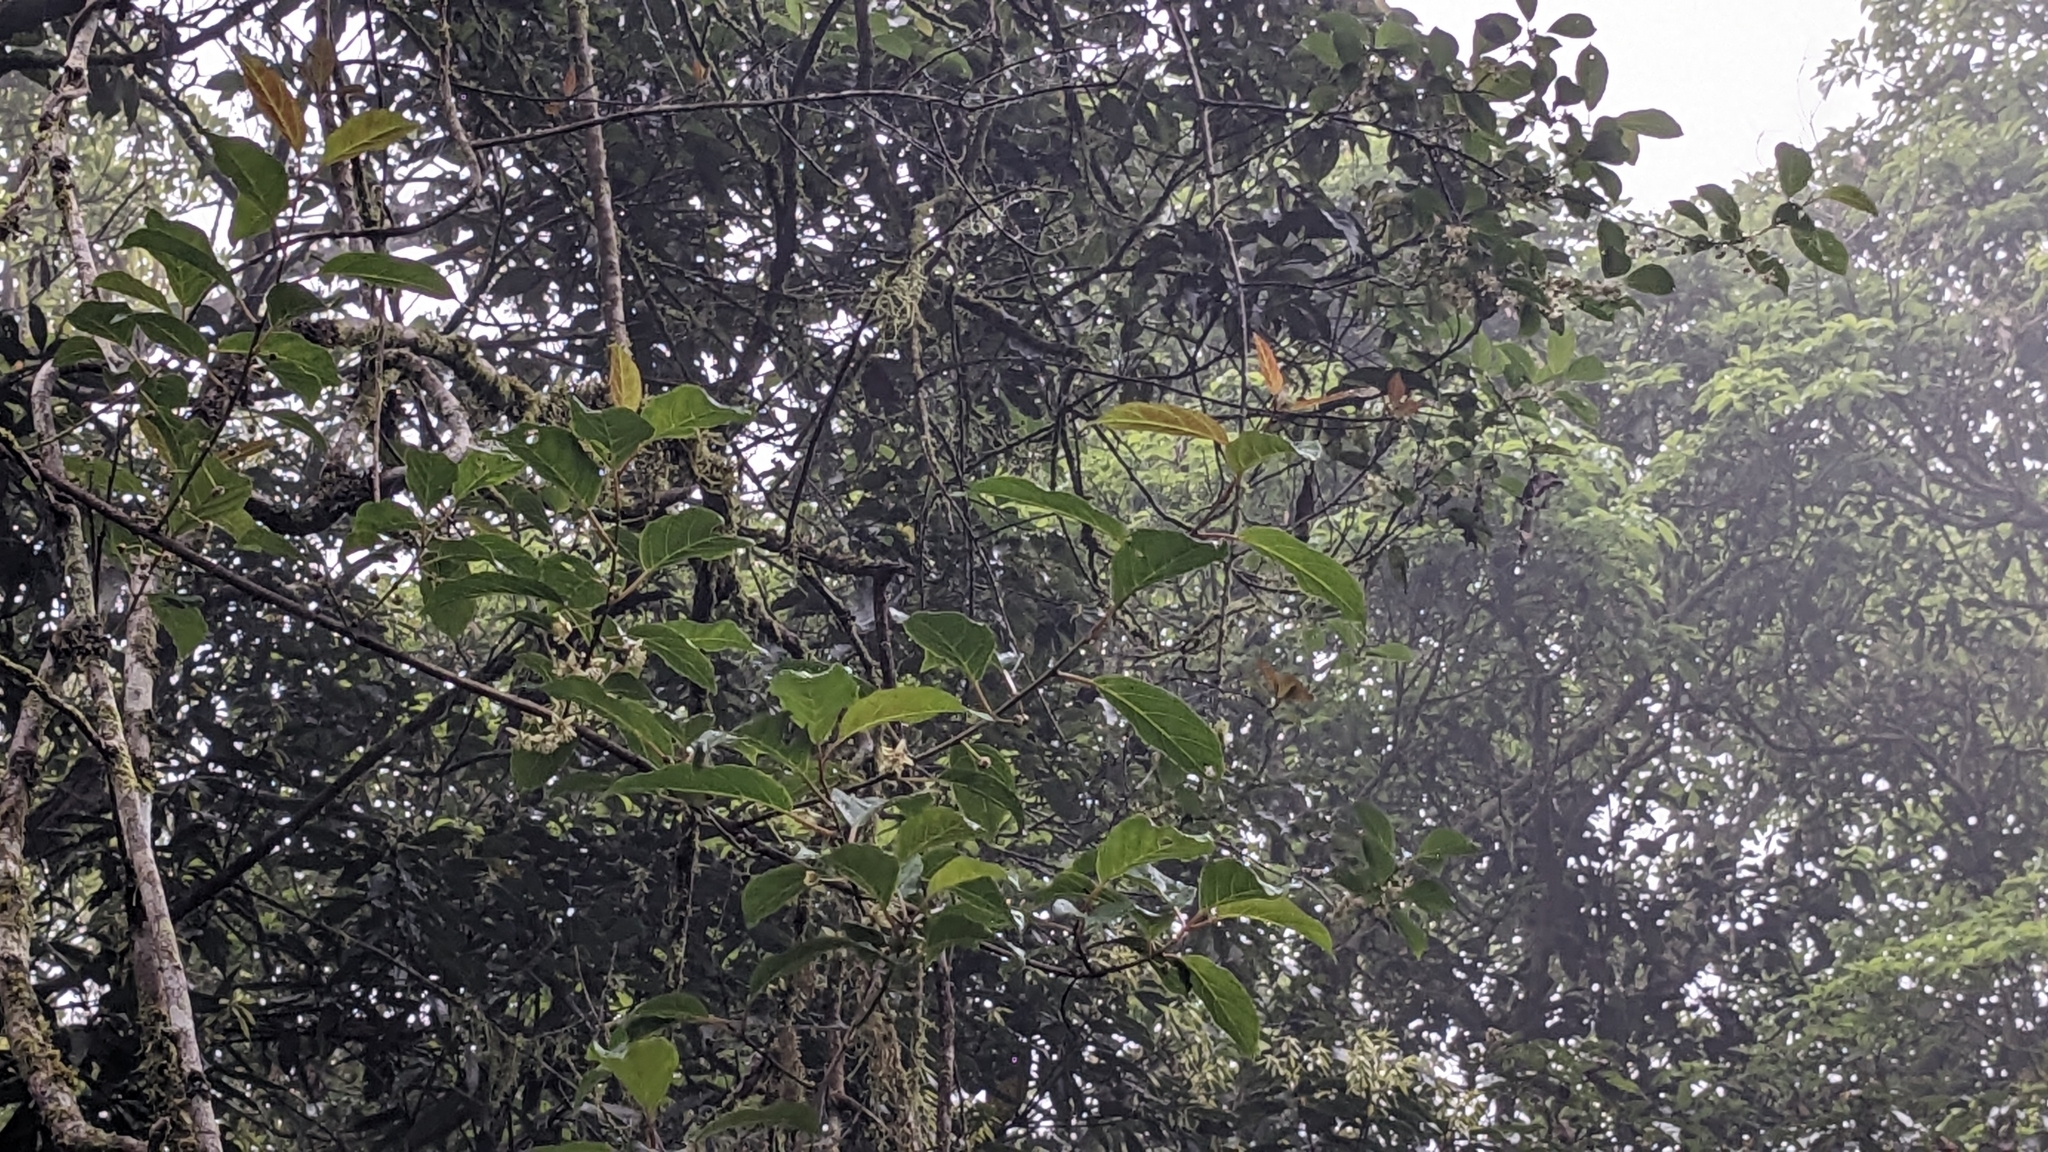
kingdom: Plantae
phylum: Tracheophyta
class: Magnoliopsida
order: Ericales
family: Actinidiaceae
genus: Actinidia
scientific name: Actinidia venosa
